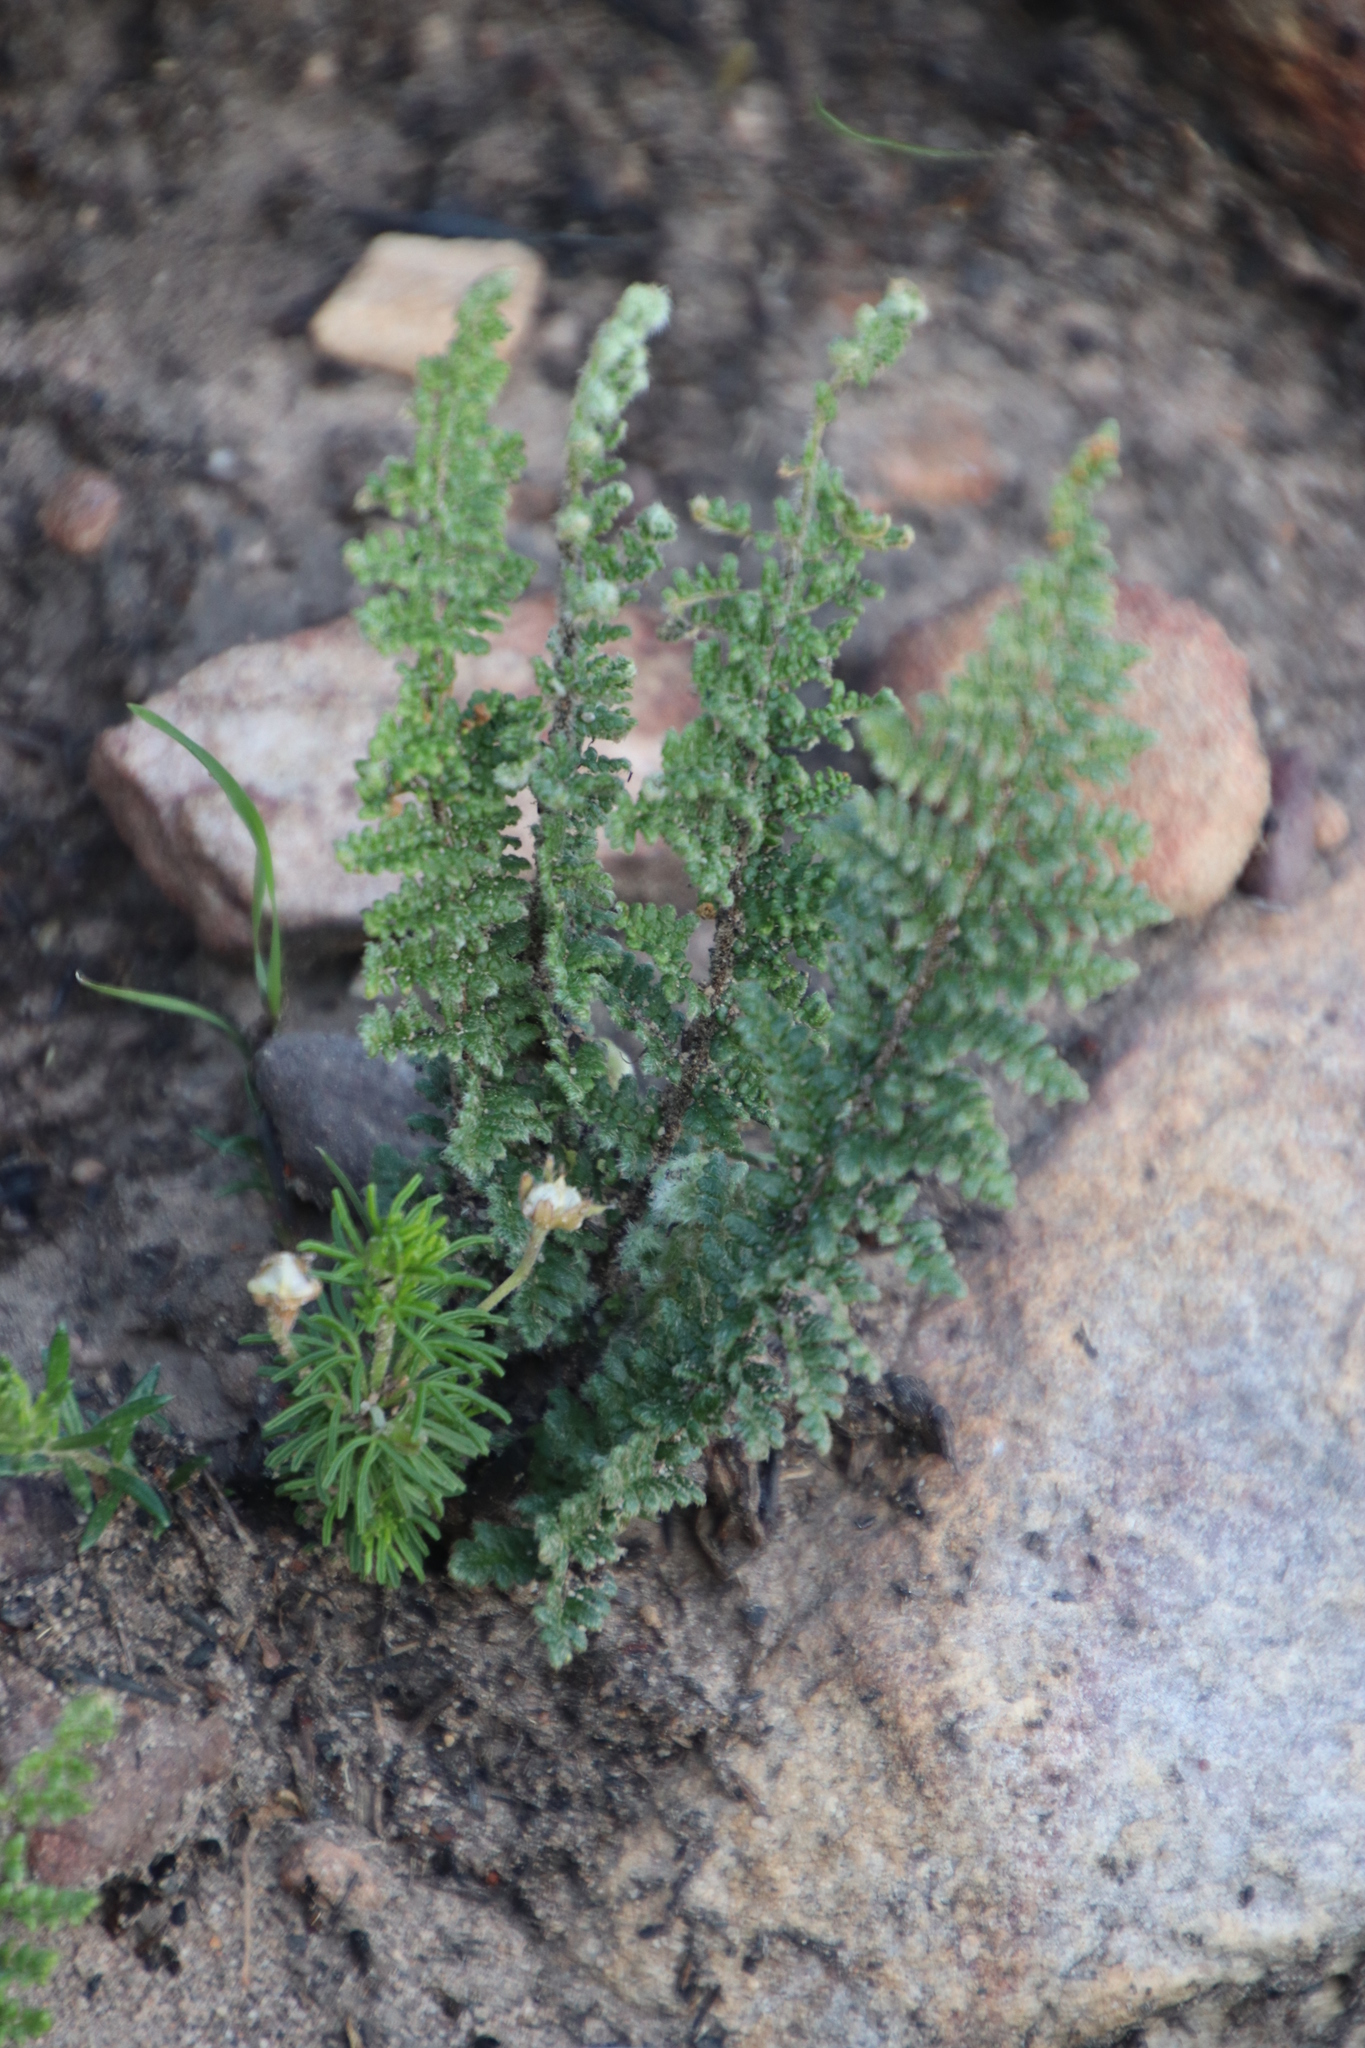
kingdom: Plantae
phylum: Tracheophyta
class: Polypodiopsida
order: Schizaeales
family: Anemiaceae
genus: Anemia
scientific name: Anemia caffrorum
